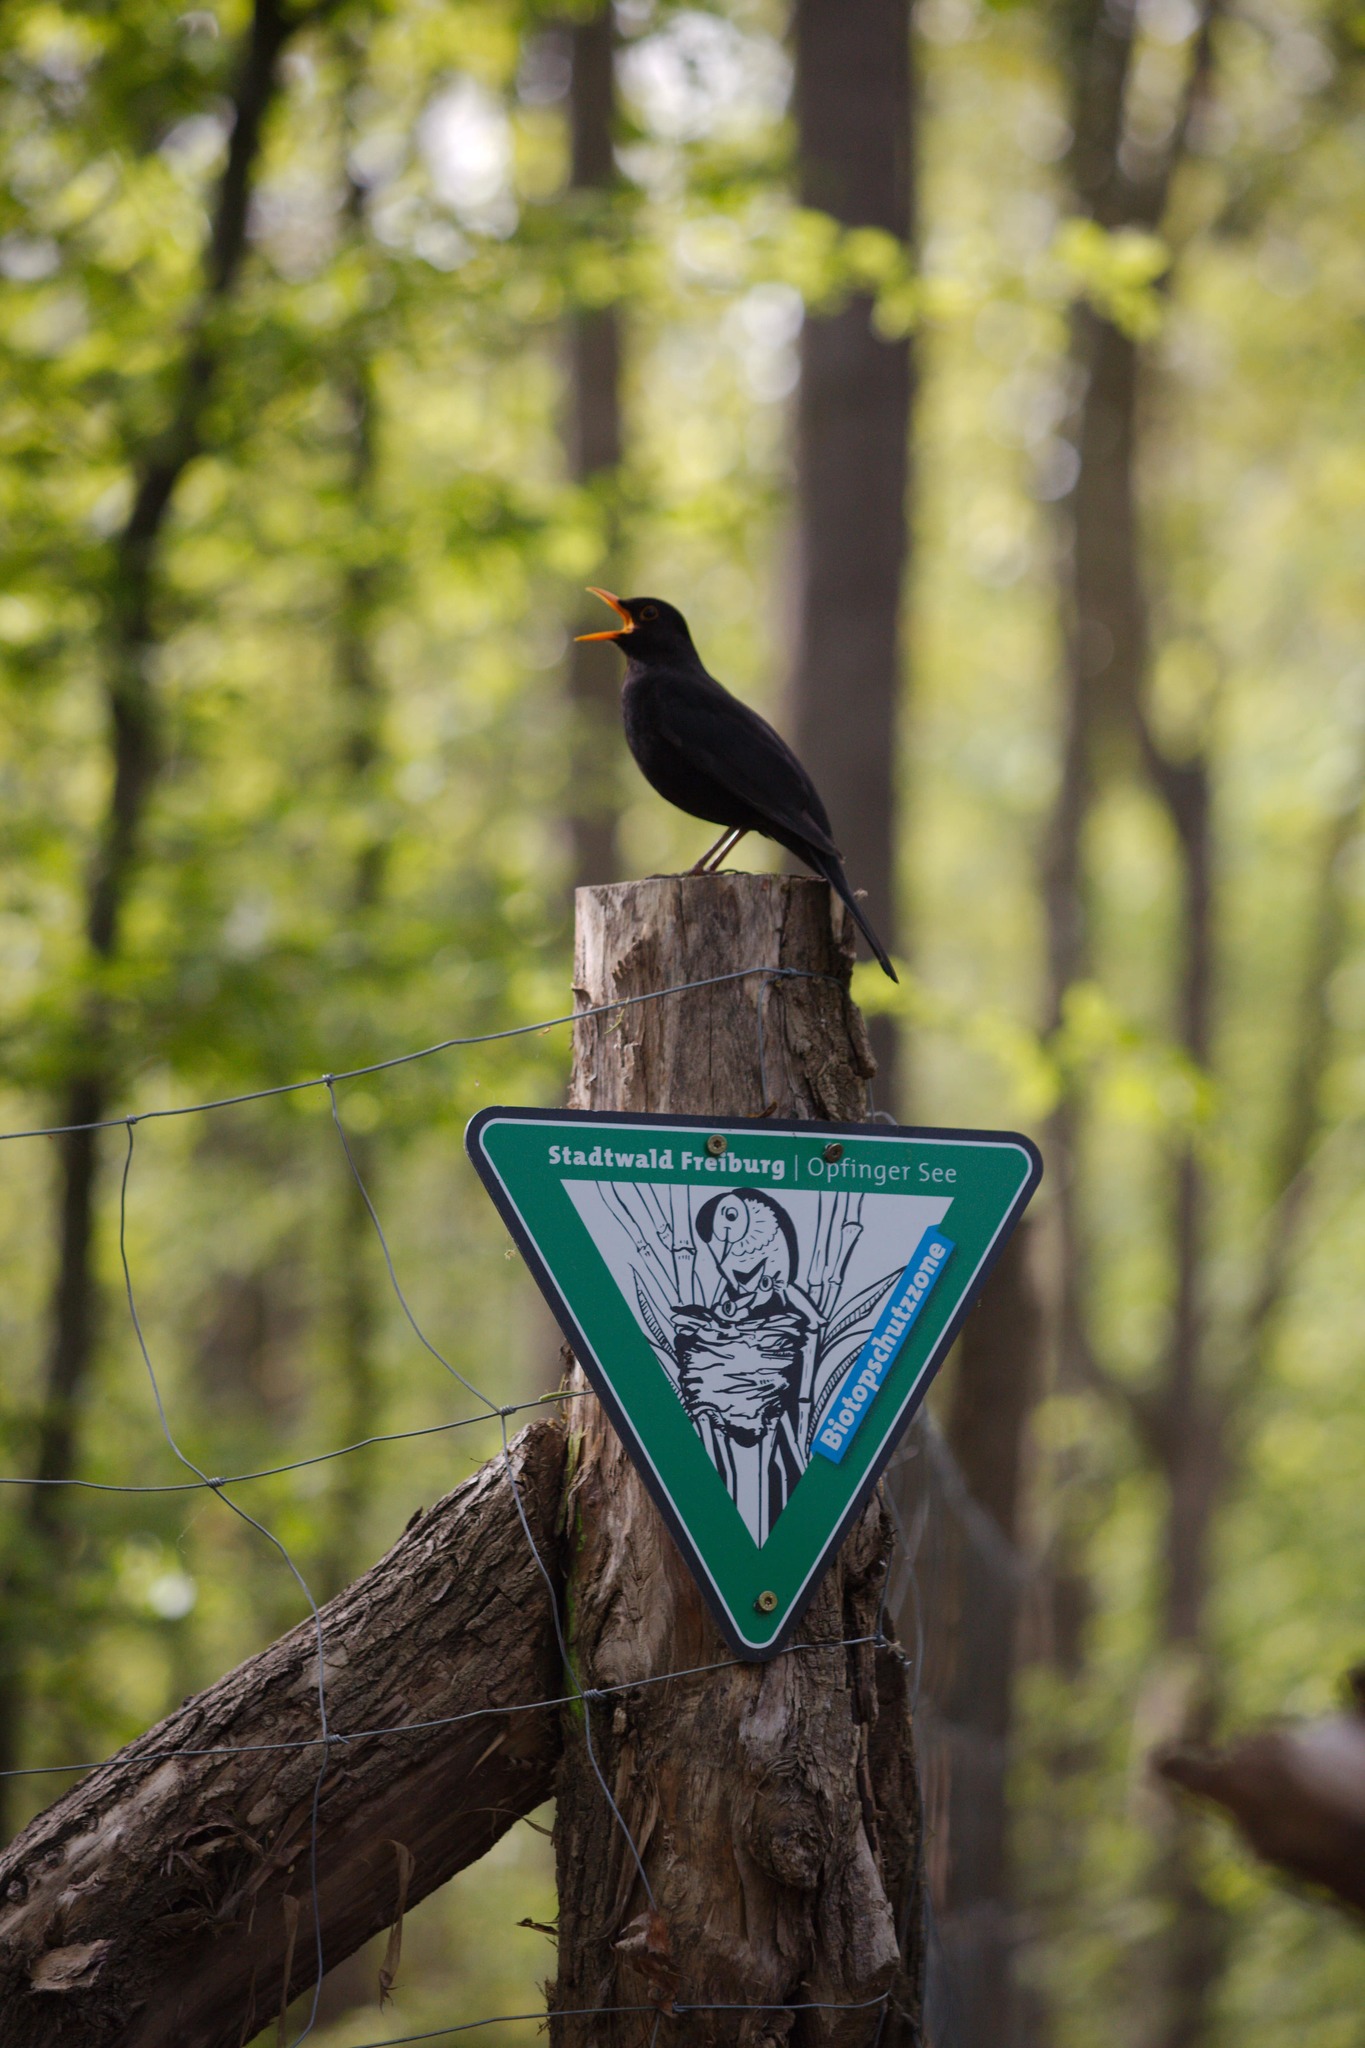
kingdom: Animalia
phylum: Chordata
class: Aves
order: Passeriformes
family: Turdidae
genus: Turdus
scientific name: Turdus merula
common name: Common blackbird
